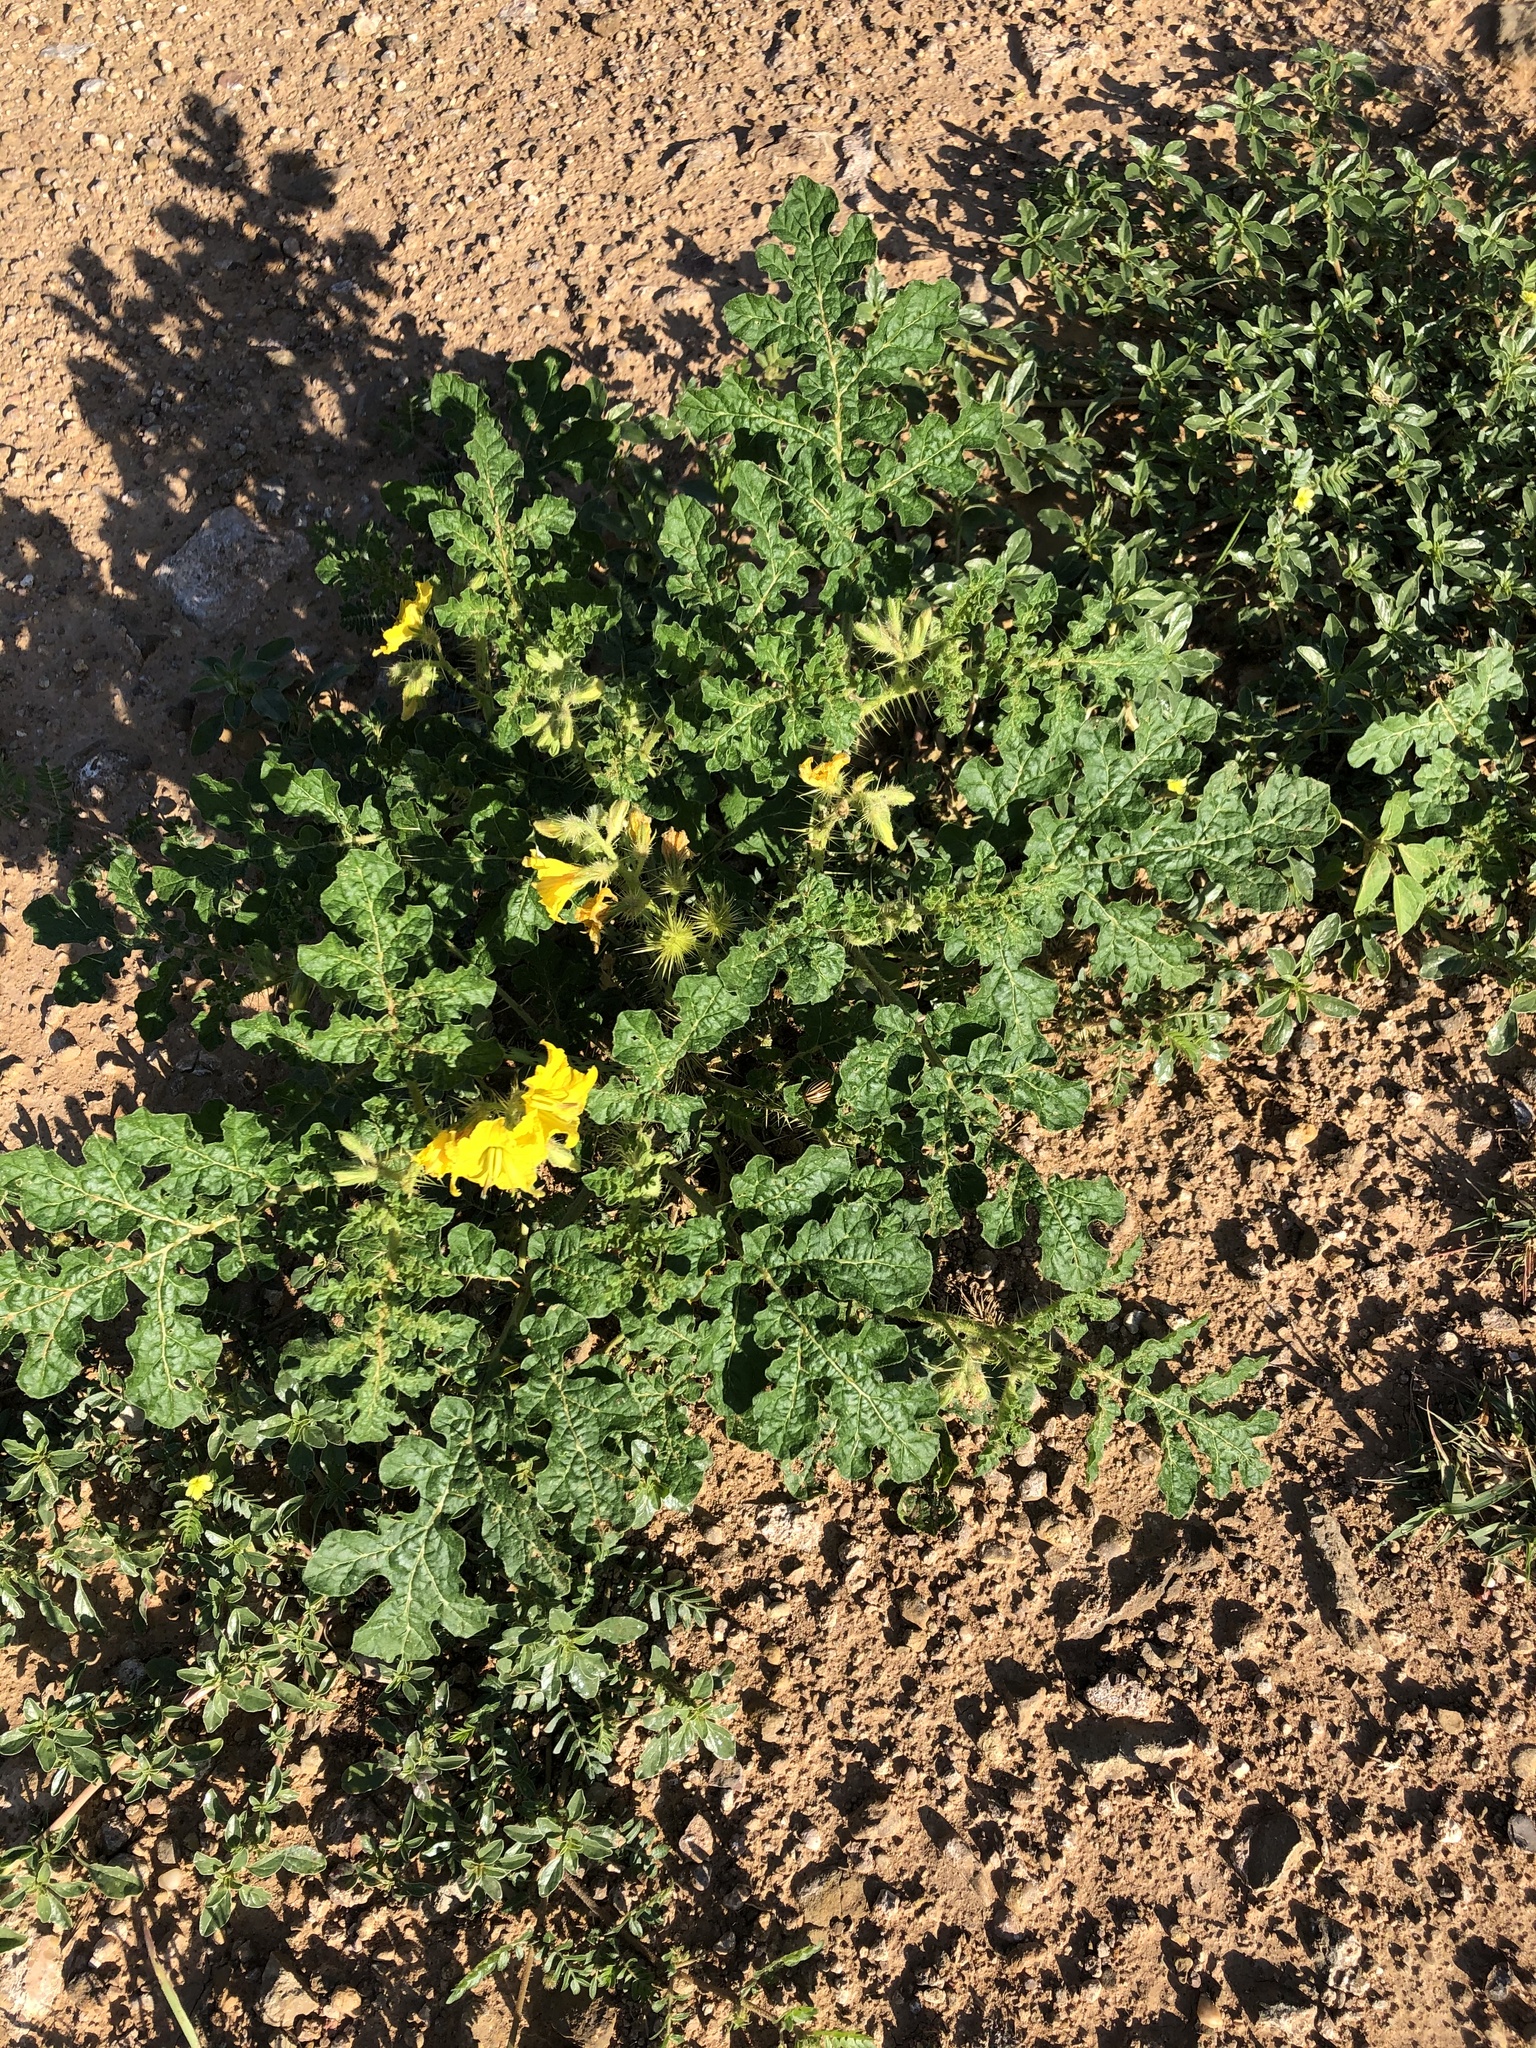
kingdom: Plantae
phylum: Tracheophyta
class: Magnoliopsida
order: Solanales
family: Solanaceae
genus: Solanum
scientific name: Solanum angustifolium
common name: Buffalobur nightshade
